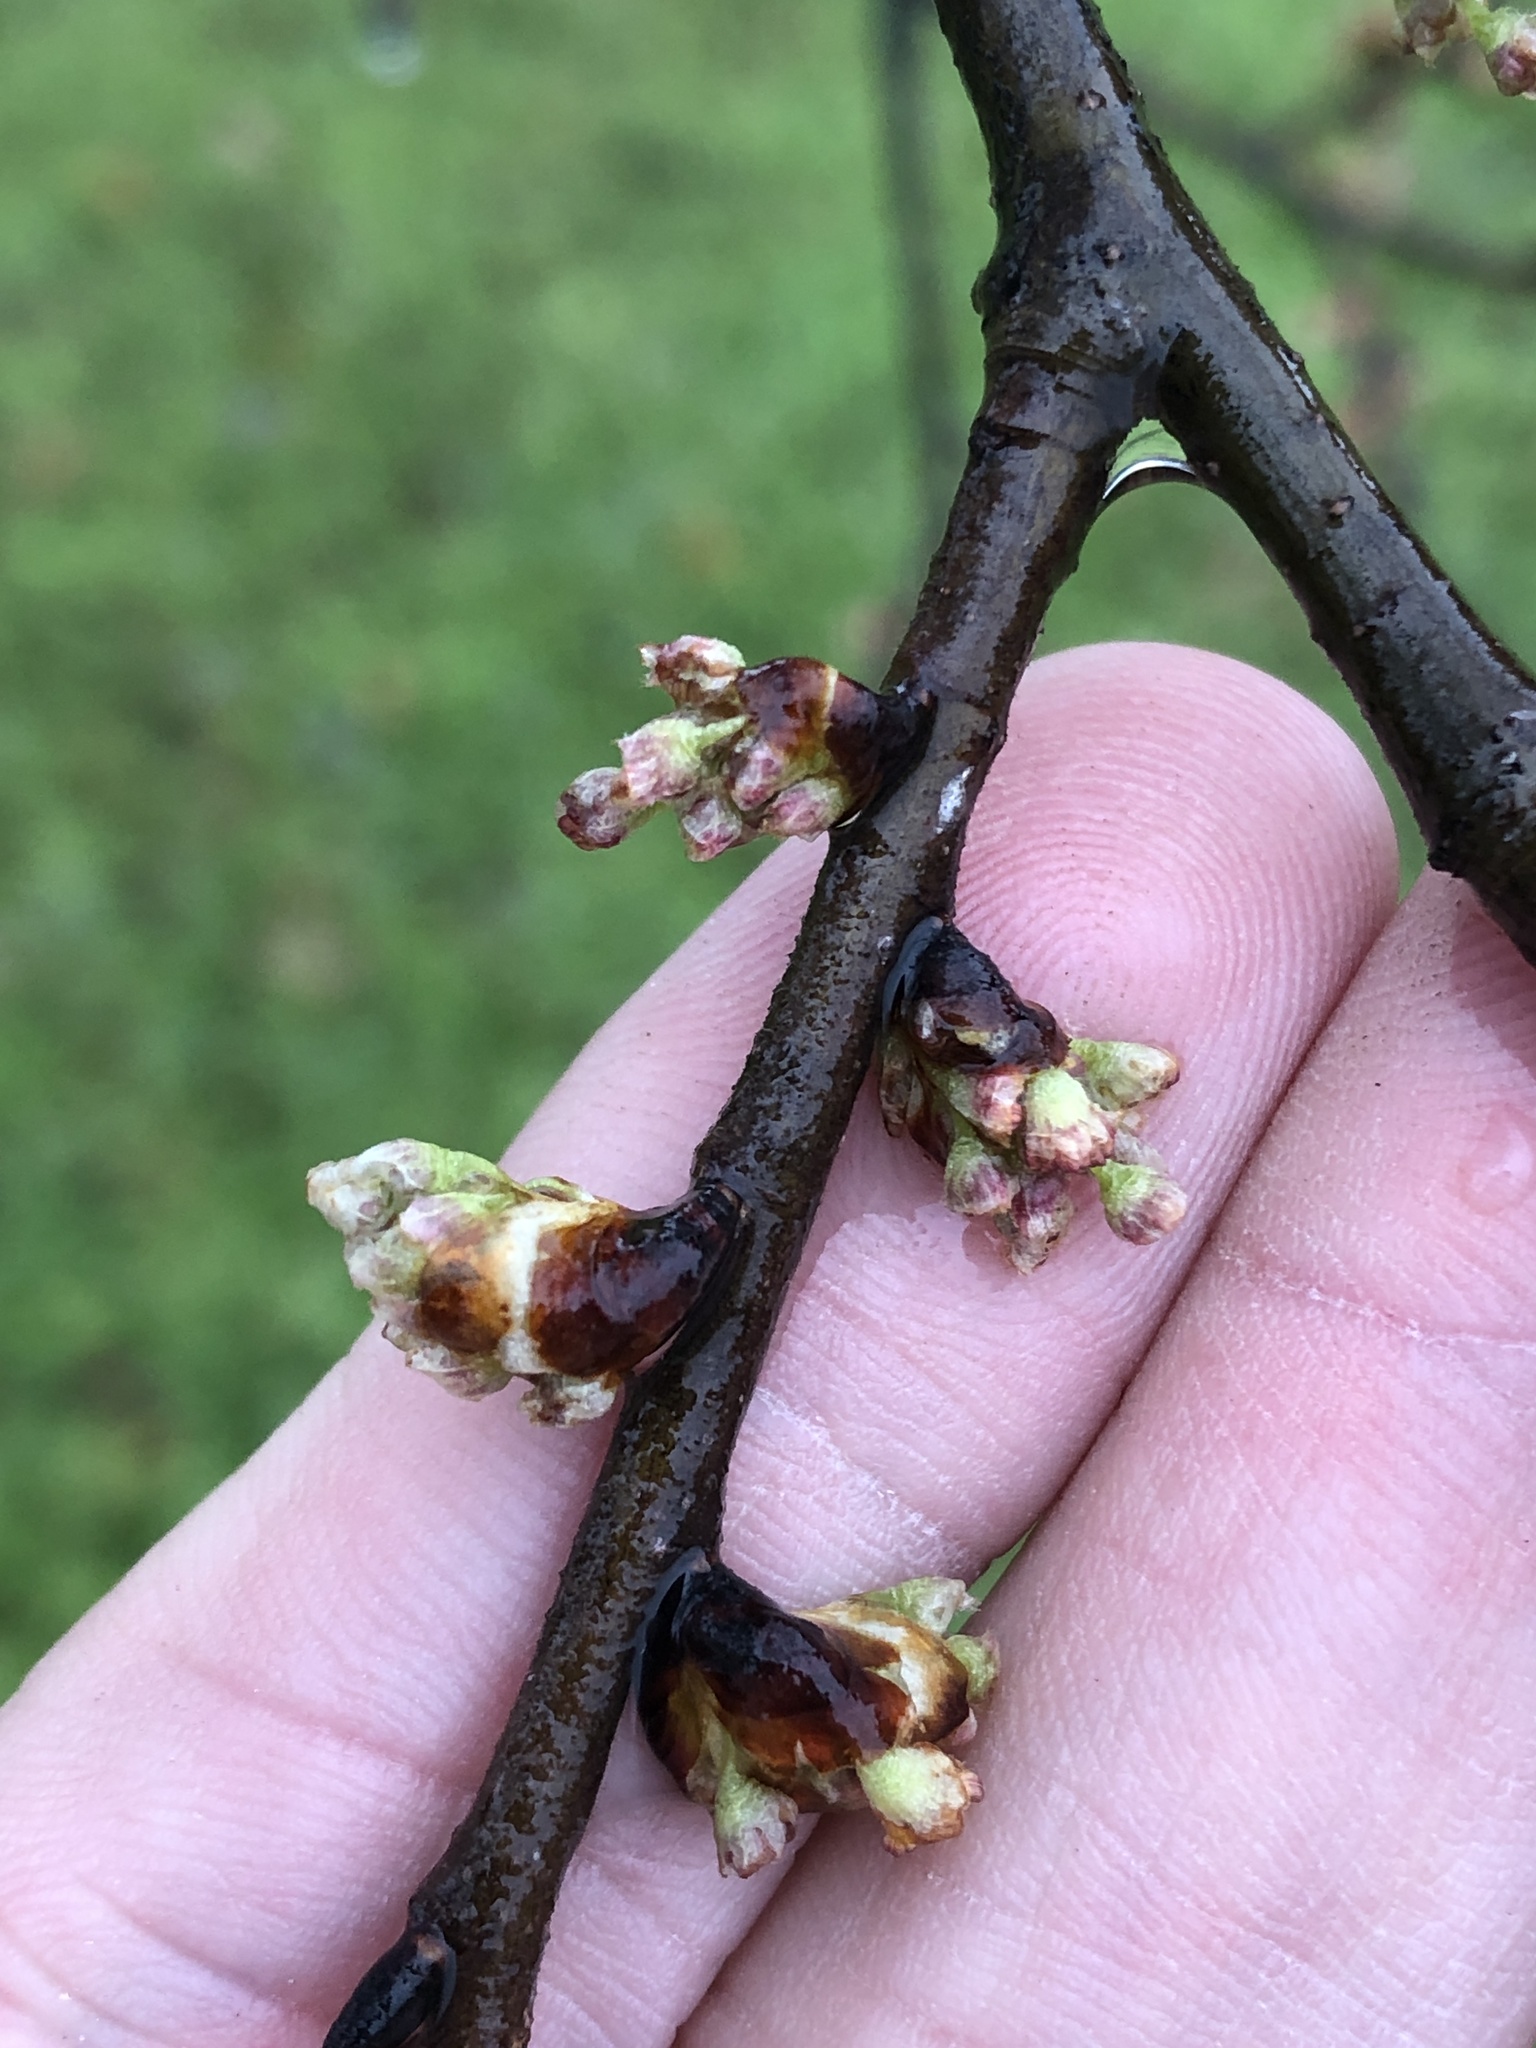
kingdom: Plantae
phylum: Tracheophyta
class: Magnoliopsida
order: Rosales
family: Ulmaceae
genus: Ulmus
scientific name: Ulmus americana
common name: American elm
